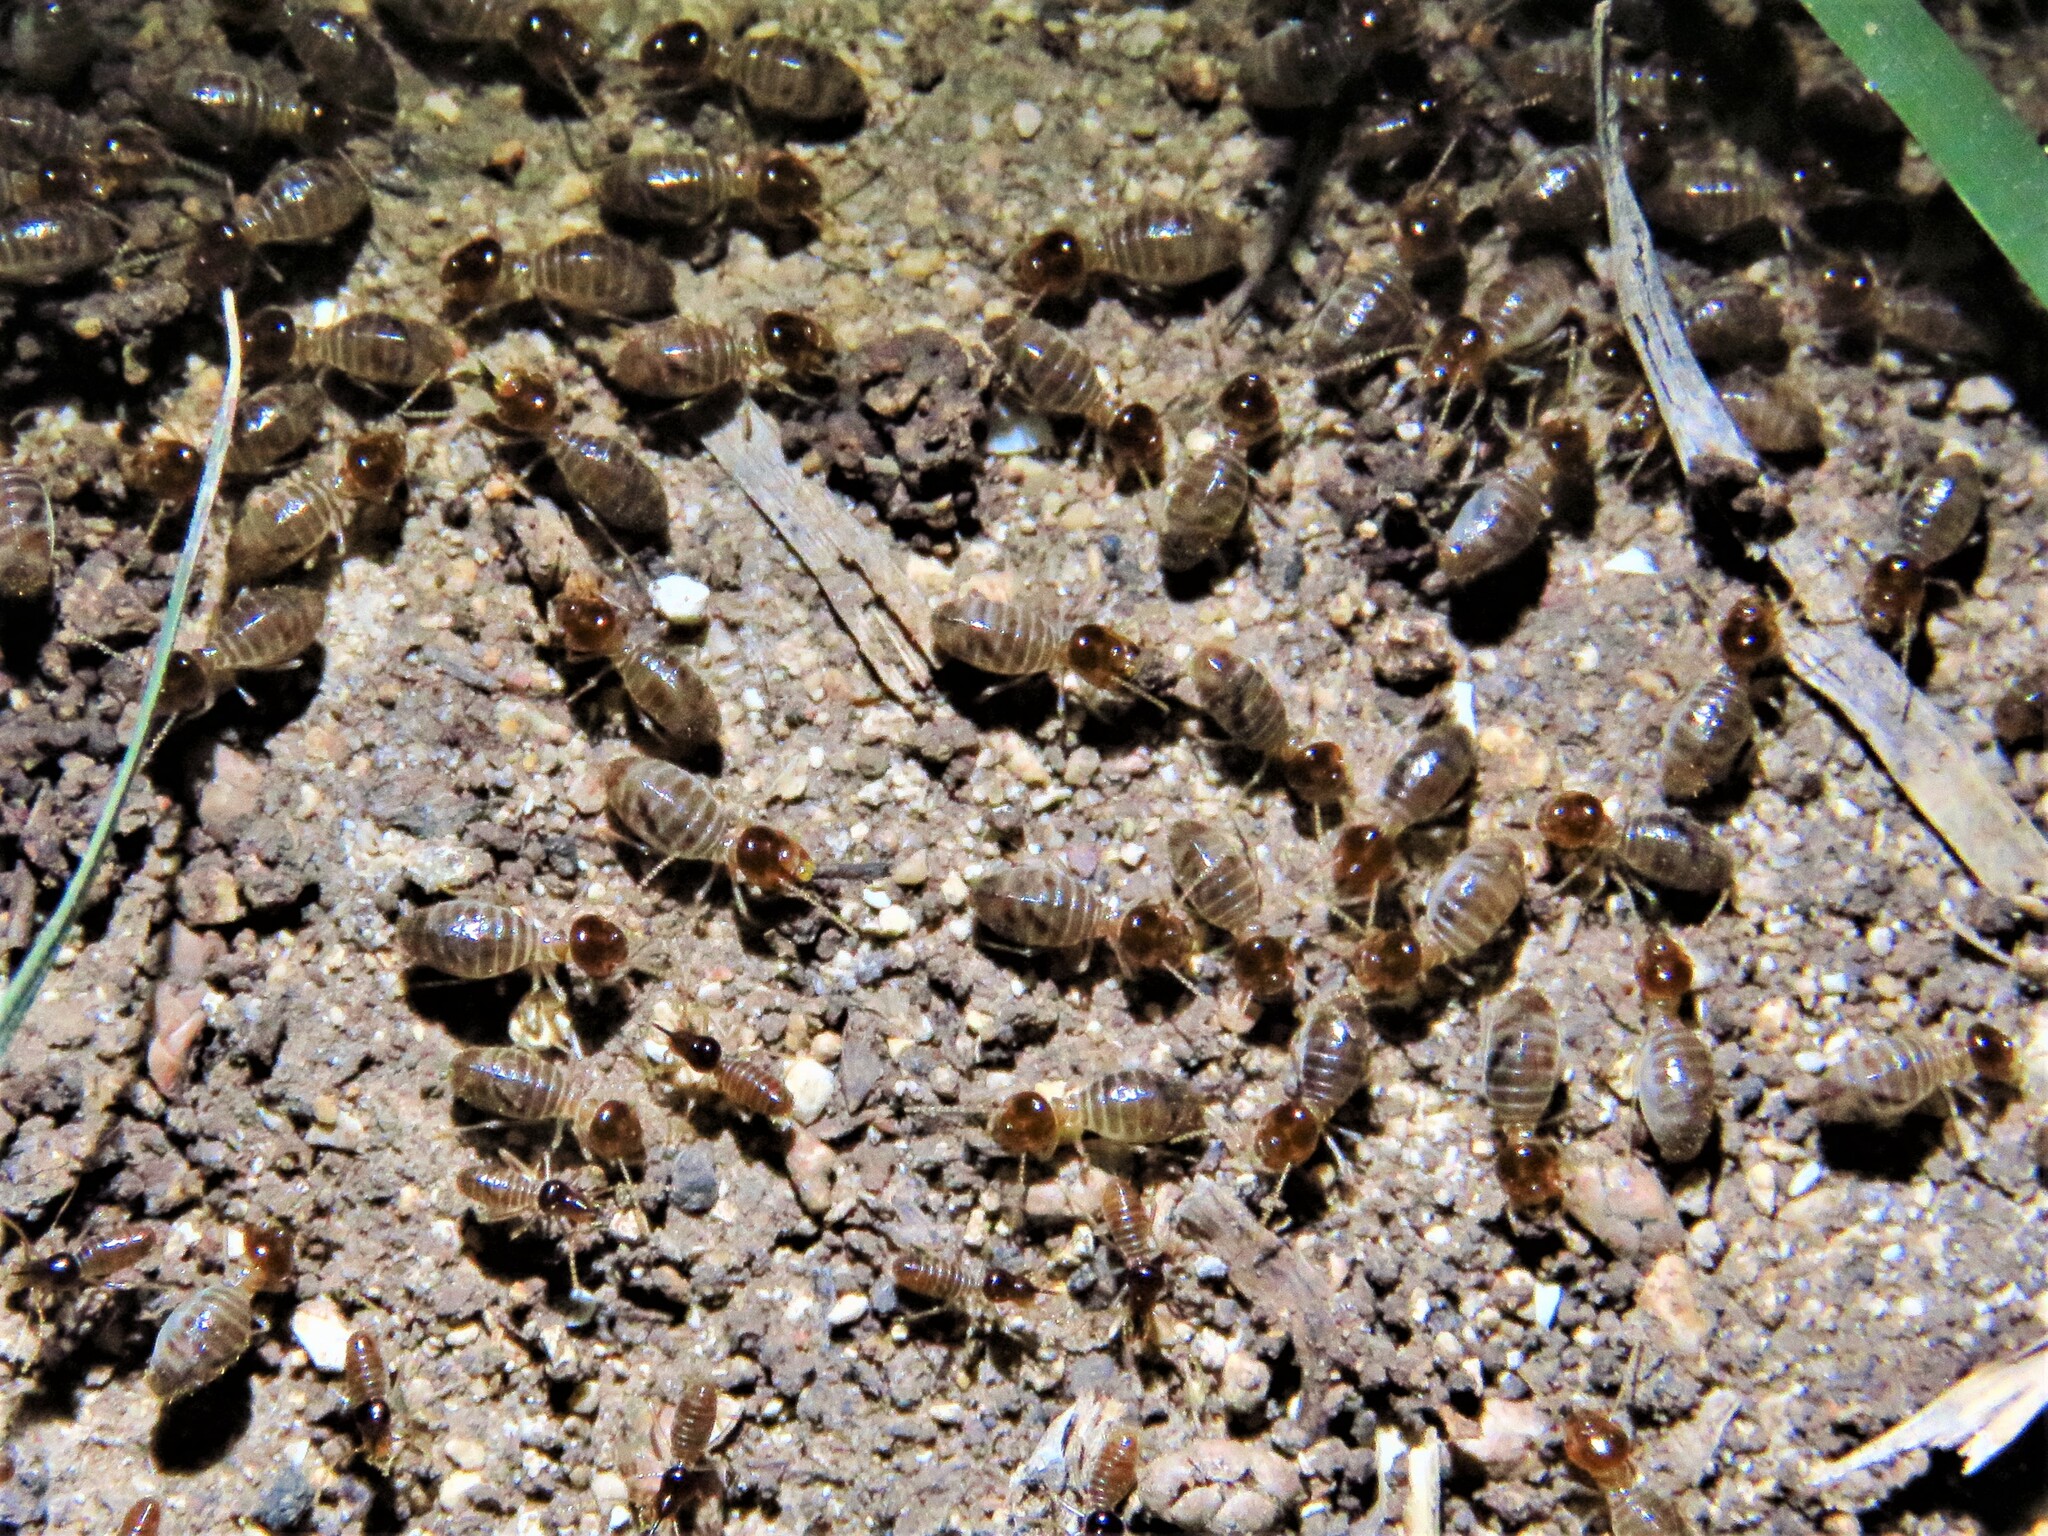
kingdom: Animalia
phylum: Arthropoda
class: Insecta
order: Blattodea
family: Termitidae
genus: Tenuirostritermes
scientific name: Tenuirostritermes cinereus
